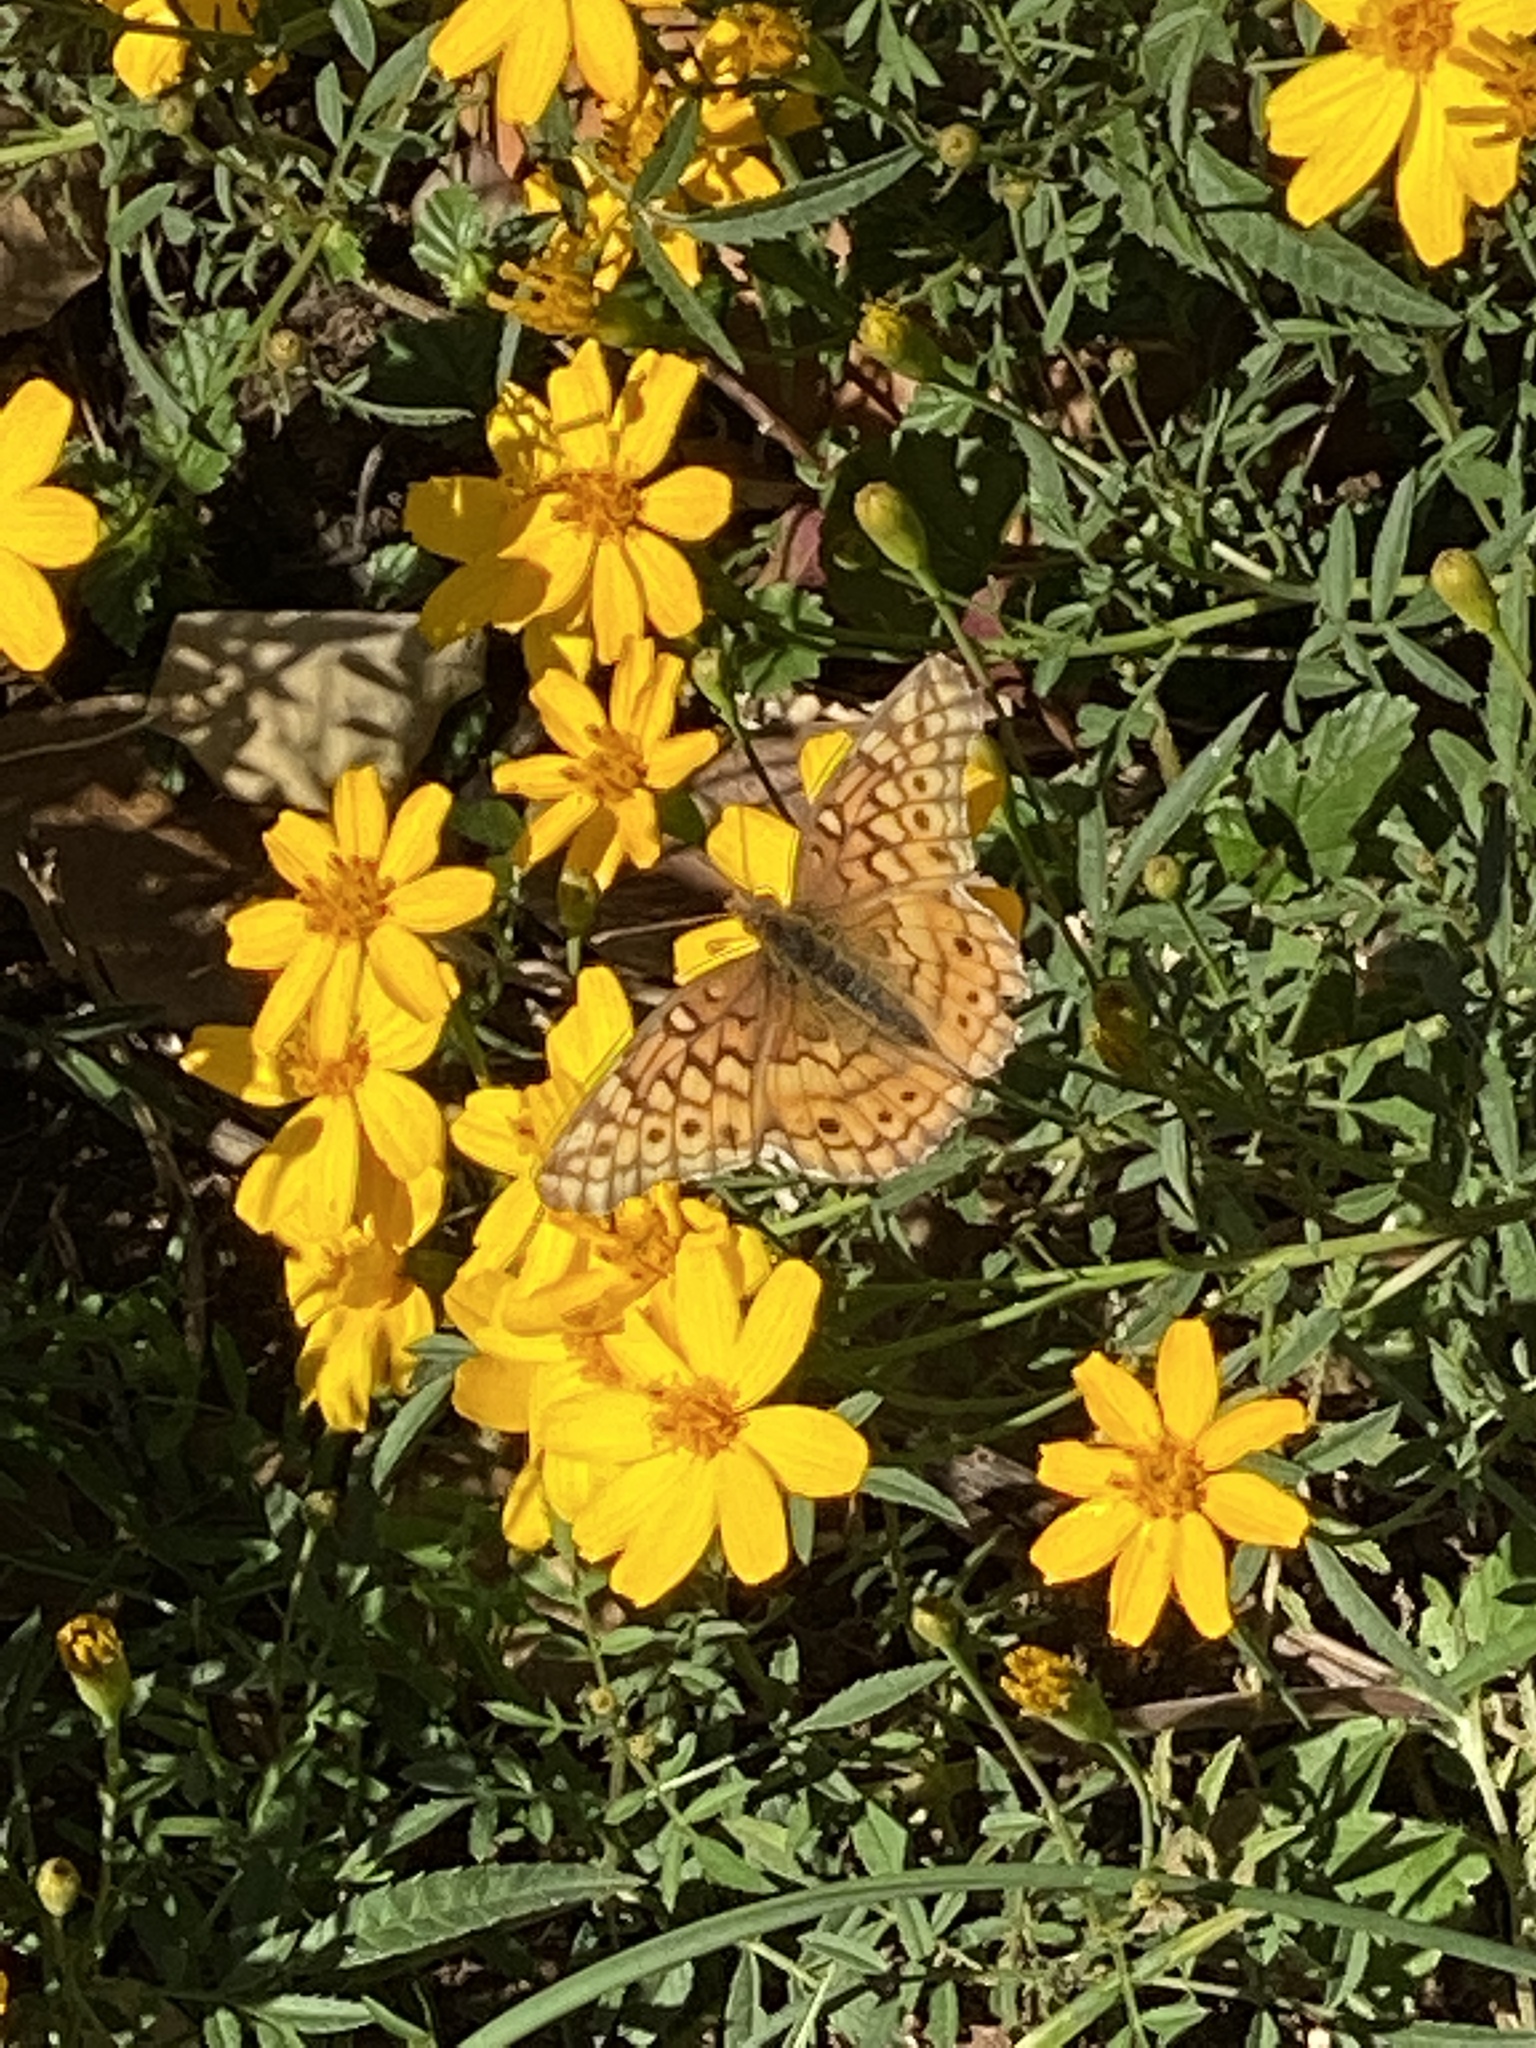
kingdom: Animalia
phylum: Arthropoda
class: Insecta
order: Lepidoptera
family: Nymphalidae
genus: Euptoieta
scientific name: Euptoieta claudia
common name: Variegated fritillary
